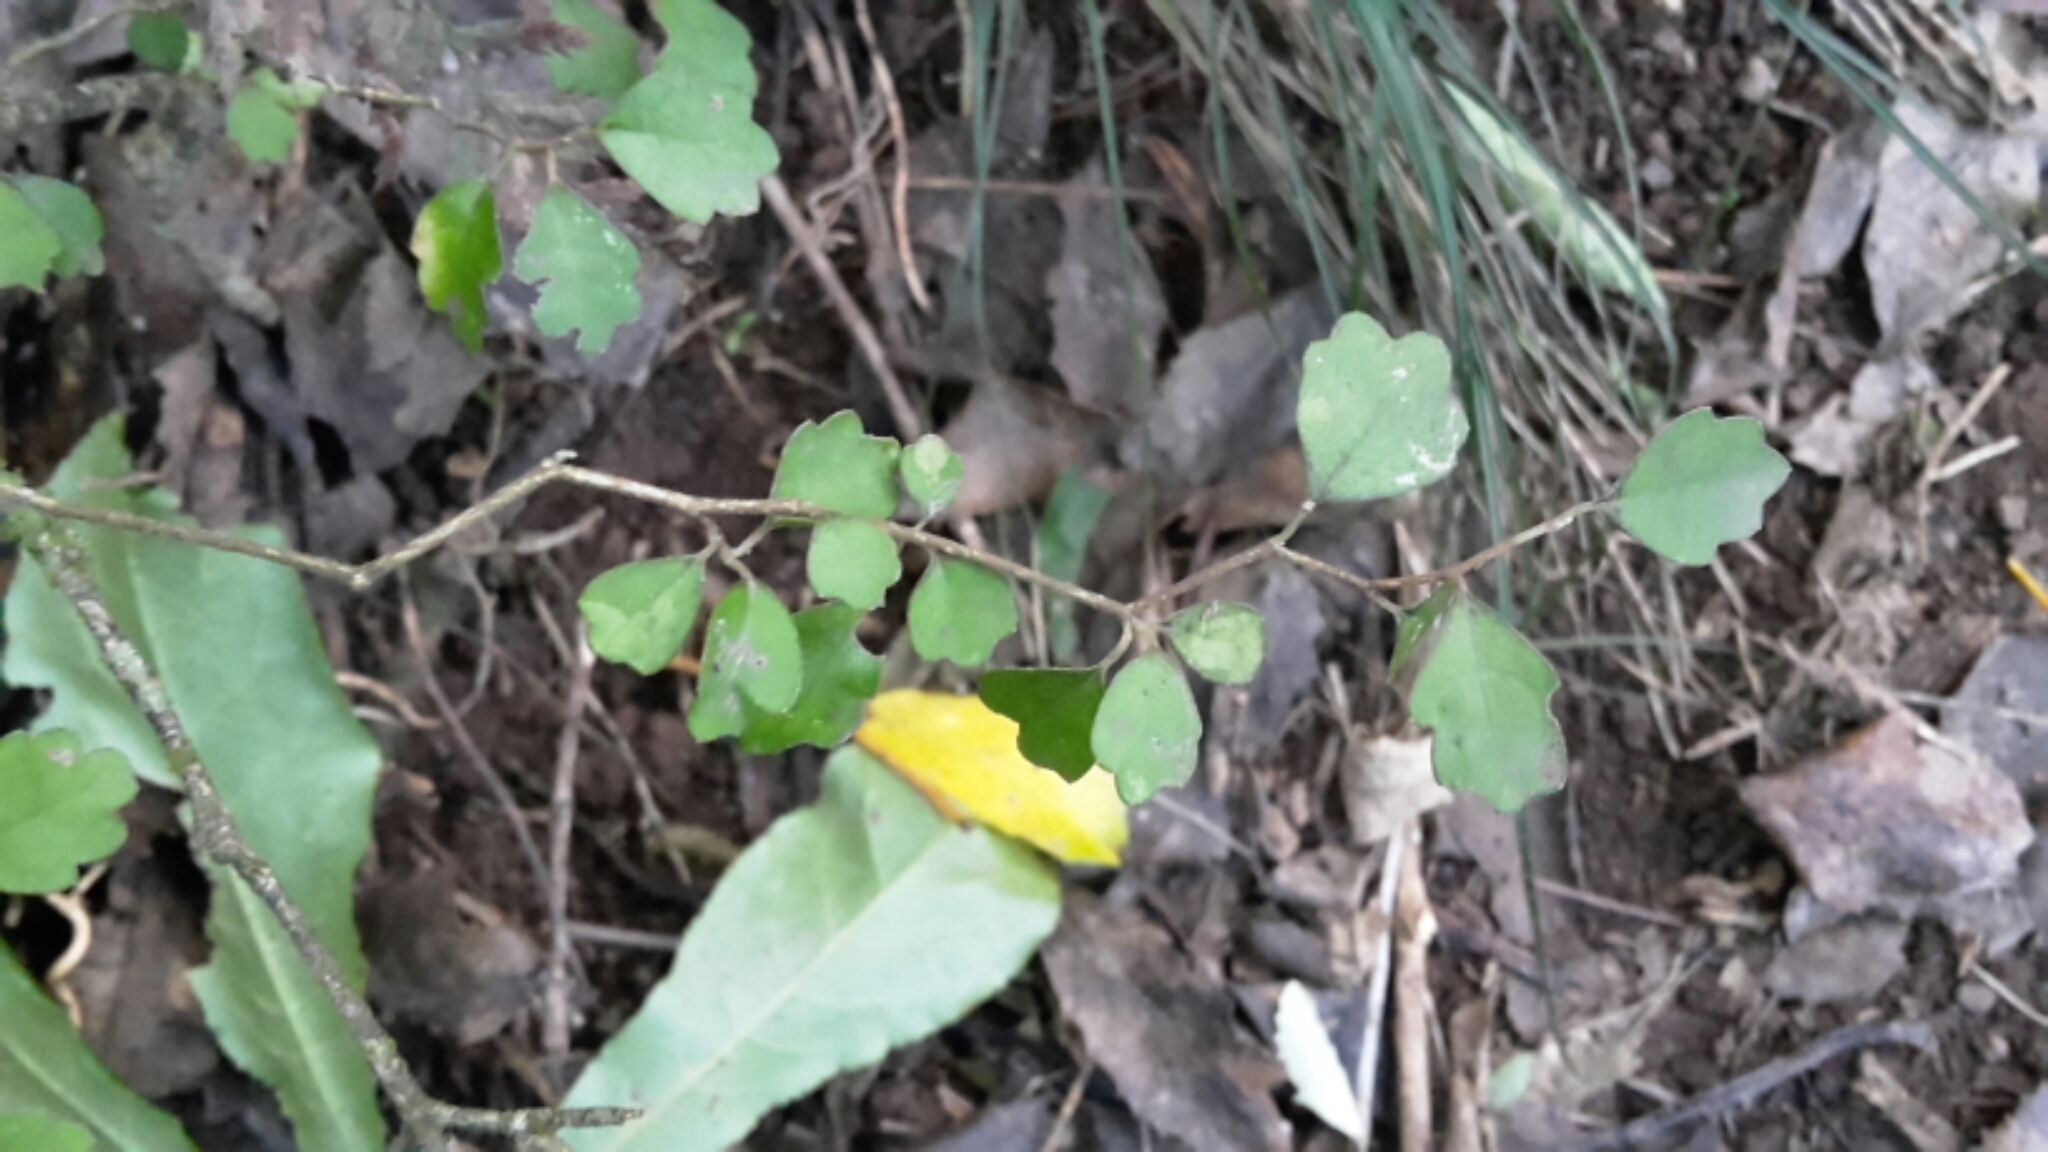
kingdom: Plantae
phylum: Tracheophyta
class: Magnoliopsida
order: Apiales
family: Pennantiaceae
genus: Pennantia
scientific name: Pennantia corymbosa
